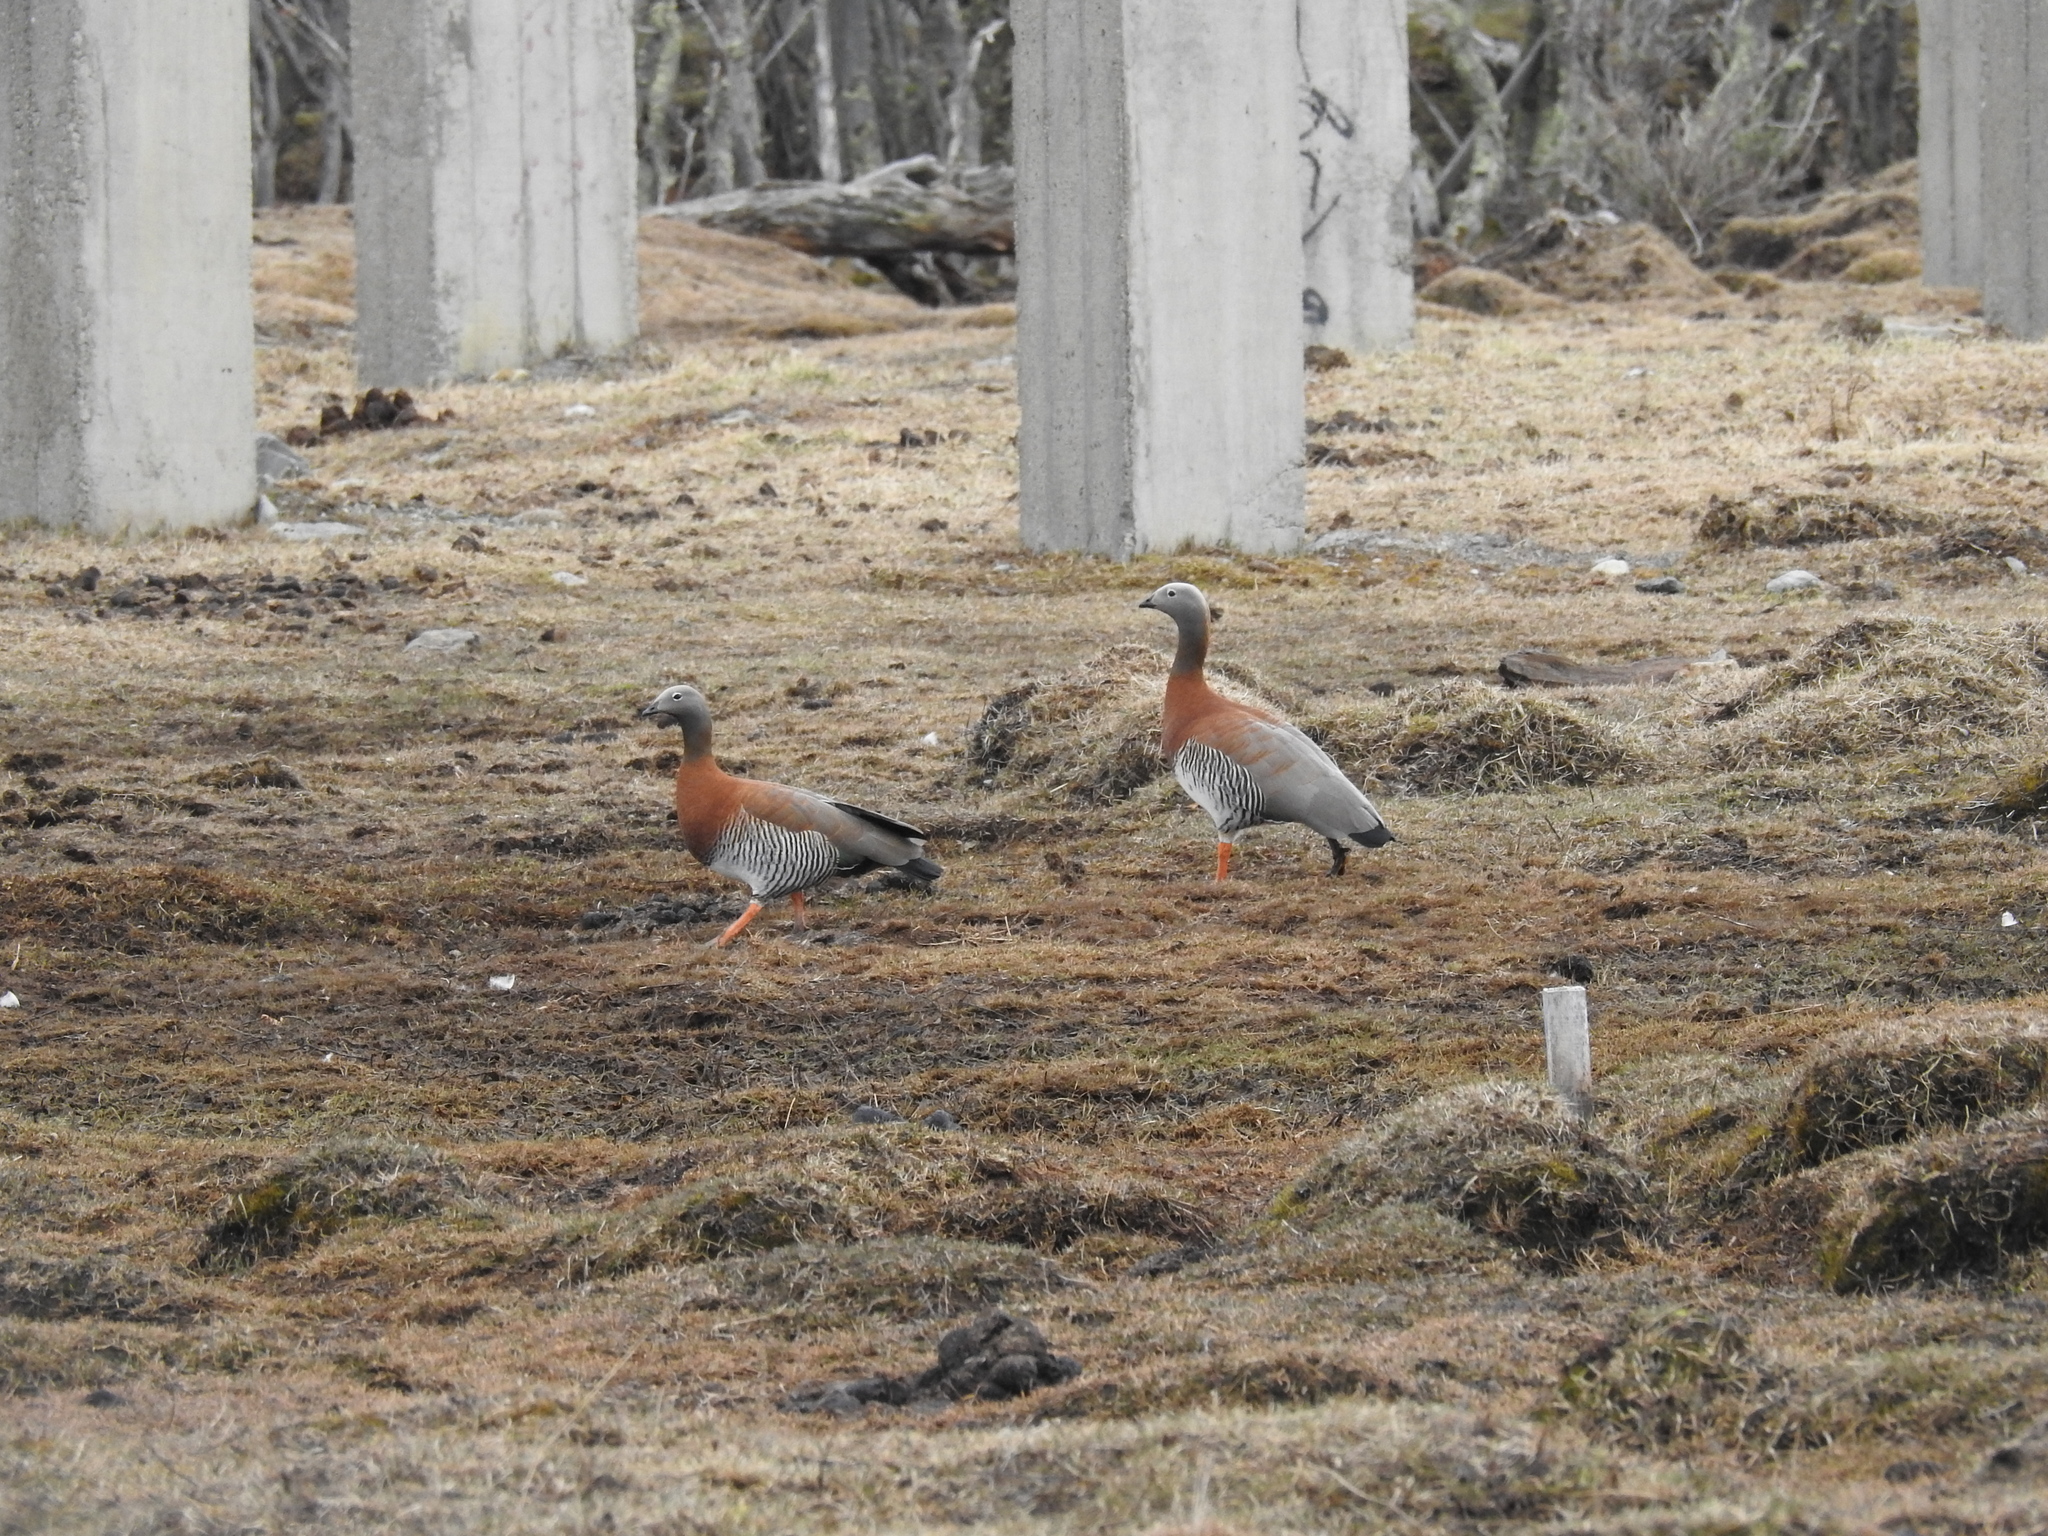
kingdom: Animalia
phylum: Chordata
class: Aves
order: Anseriformes
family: Anatidae
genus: Chloephaga
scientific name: Chloephaga poliocephala
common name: Ashy-headed goose
